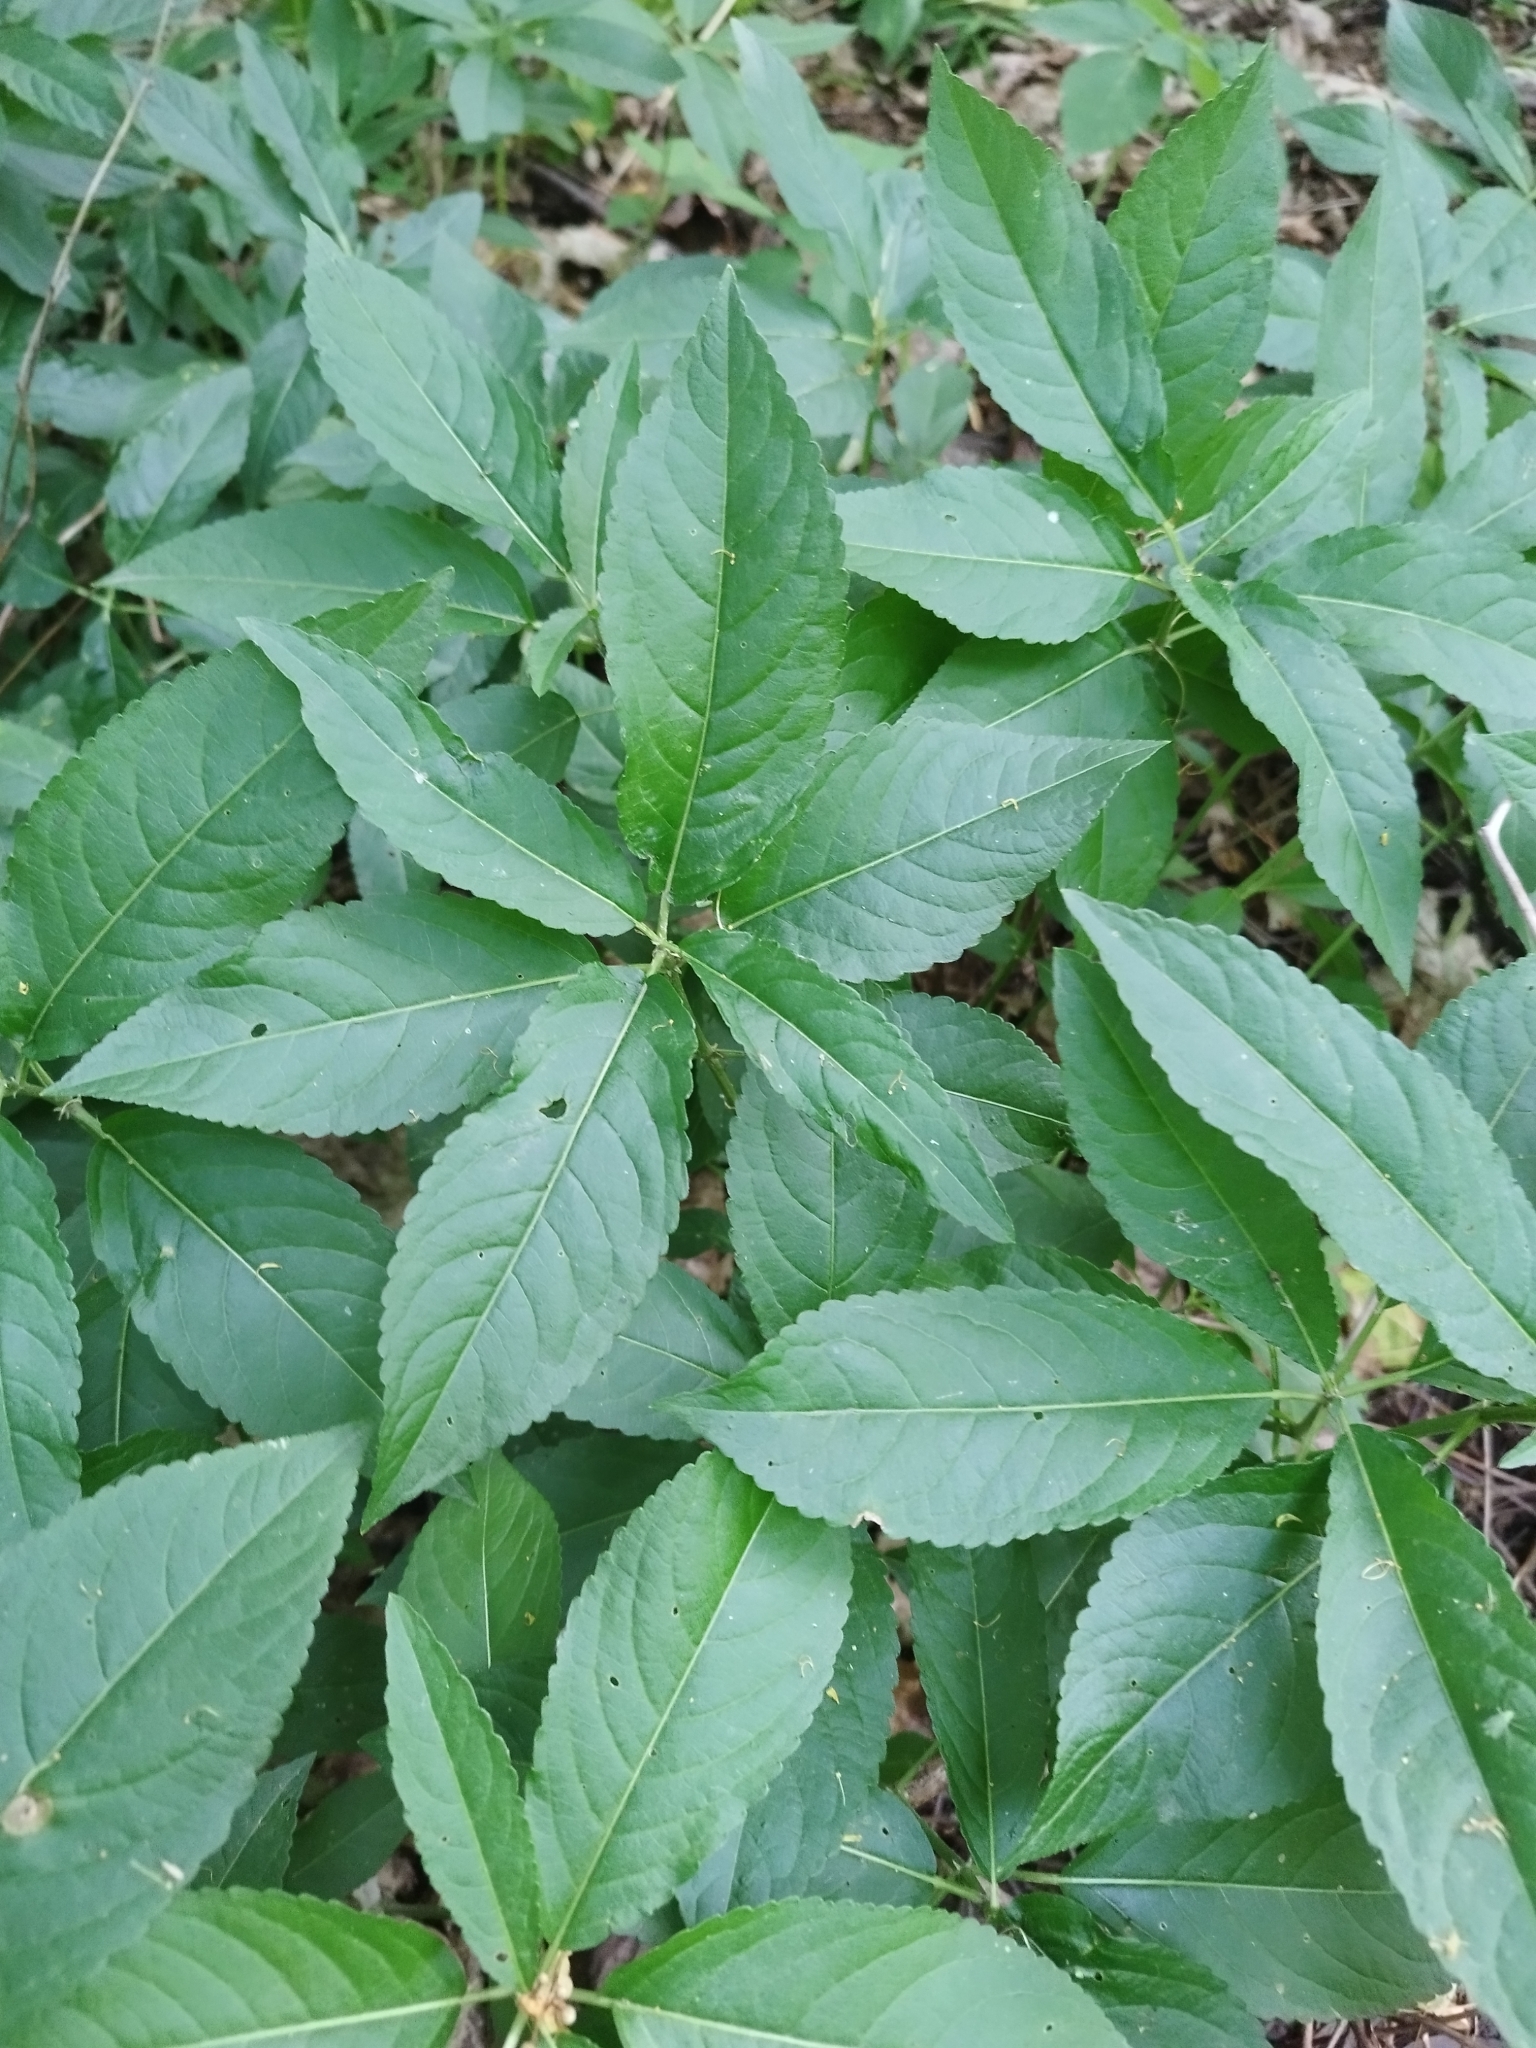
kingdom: Plantae
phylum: Tracheophyta
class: Magnoliopsida
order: Malpighiales
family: Euphorbiaceae
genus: Mercurialis
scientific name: Mercurialis perennis
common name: Dog mercury
